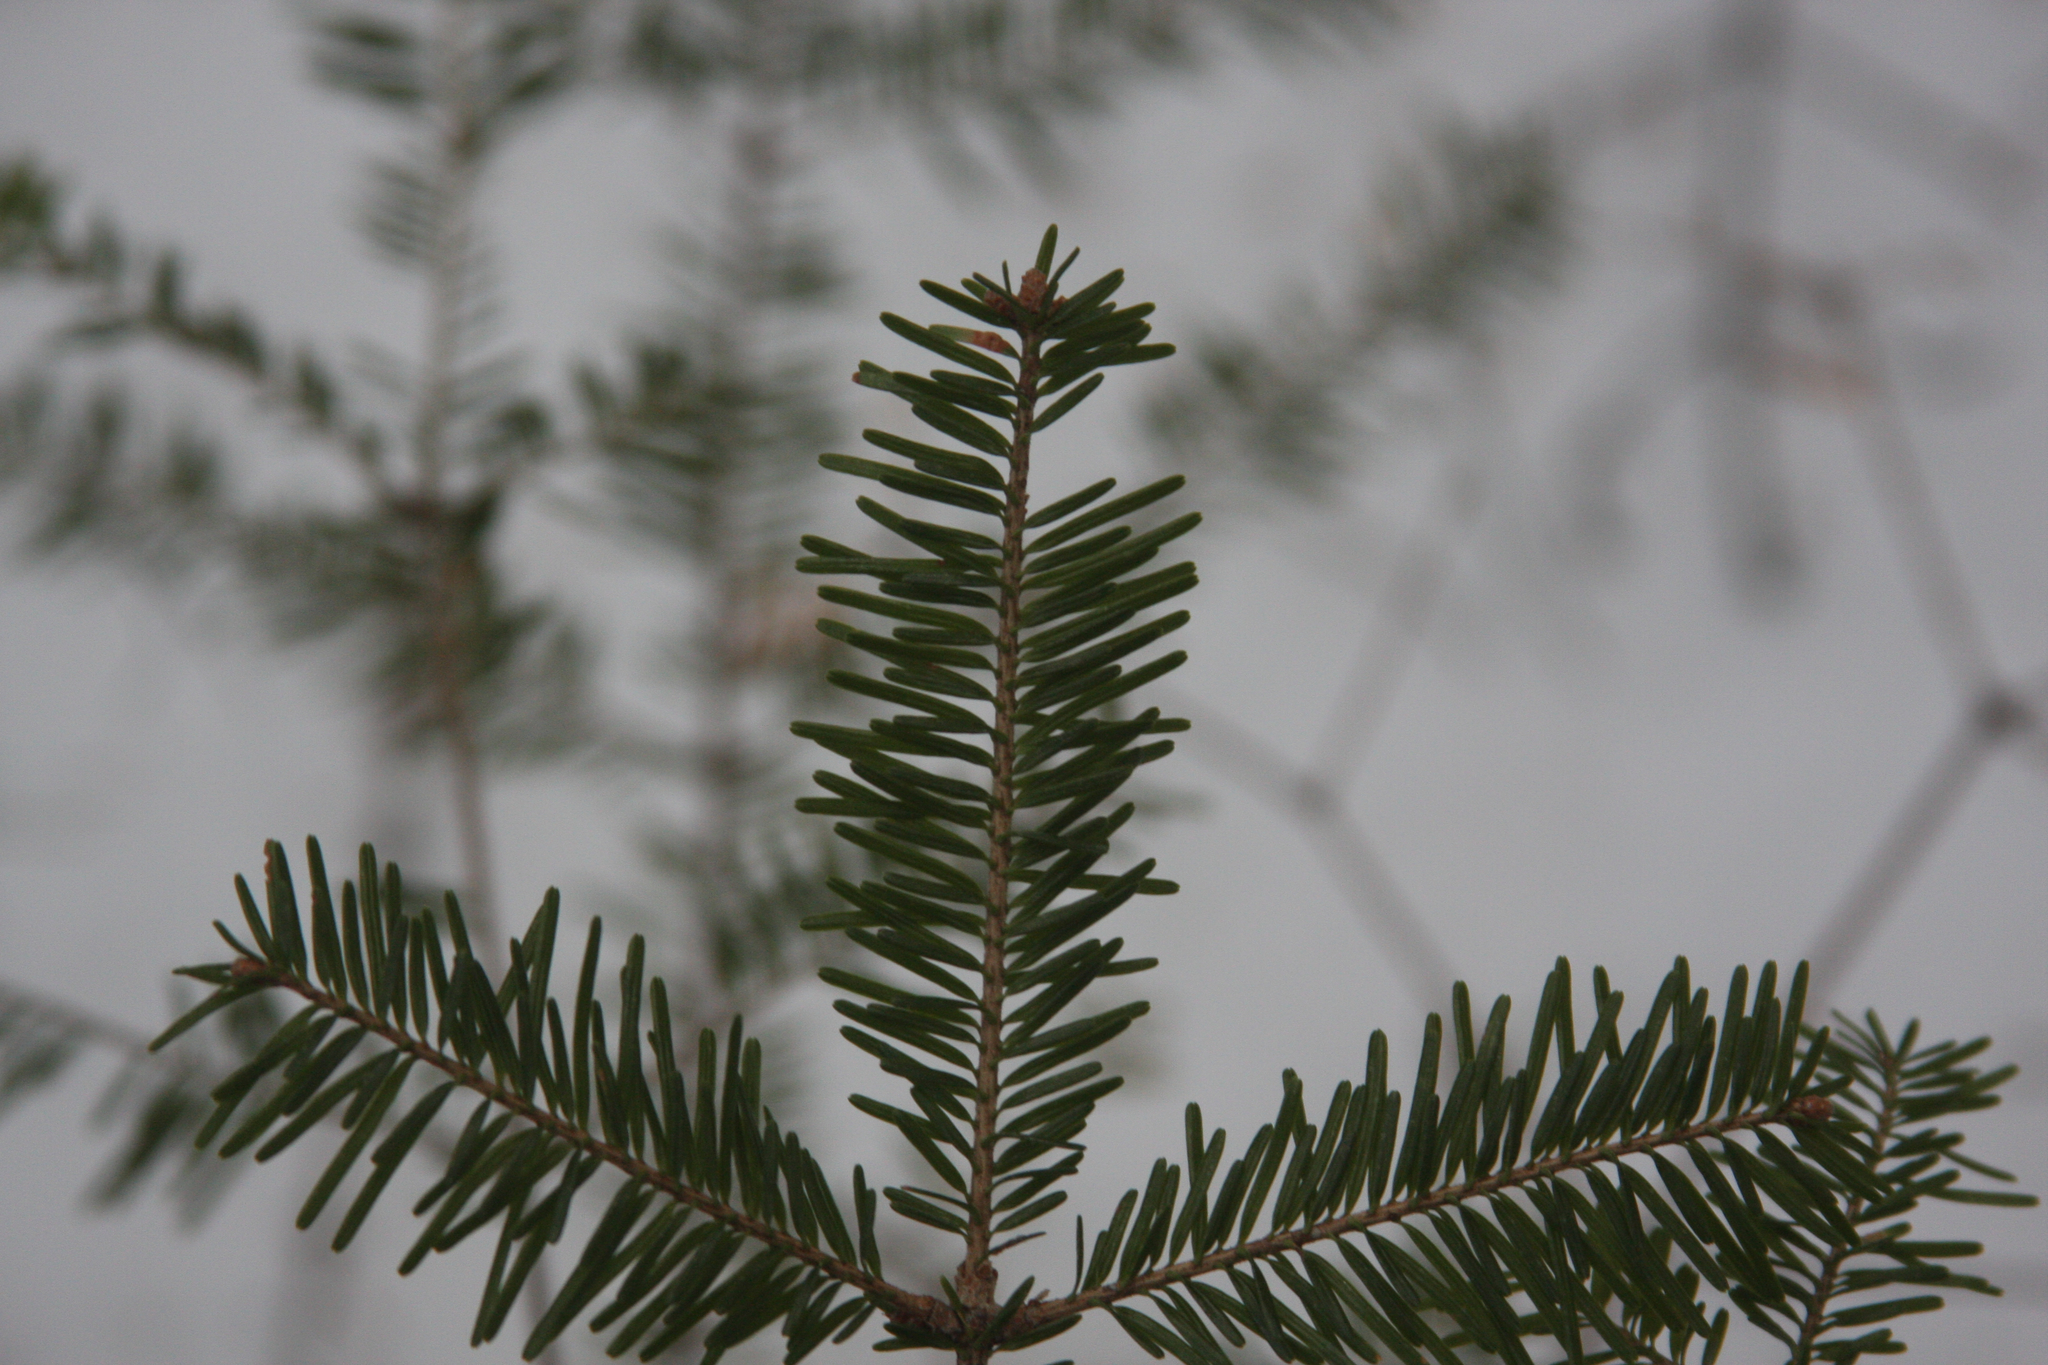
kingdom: Plantae
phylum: Tracheophyta
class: Pinopsida
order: Pinales
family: Pinaceae
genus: Abies
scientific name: Abies balsamea
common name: Balsam fir
